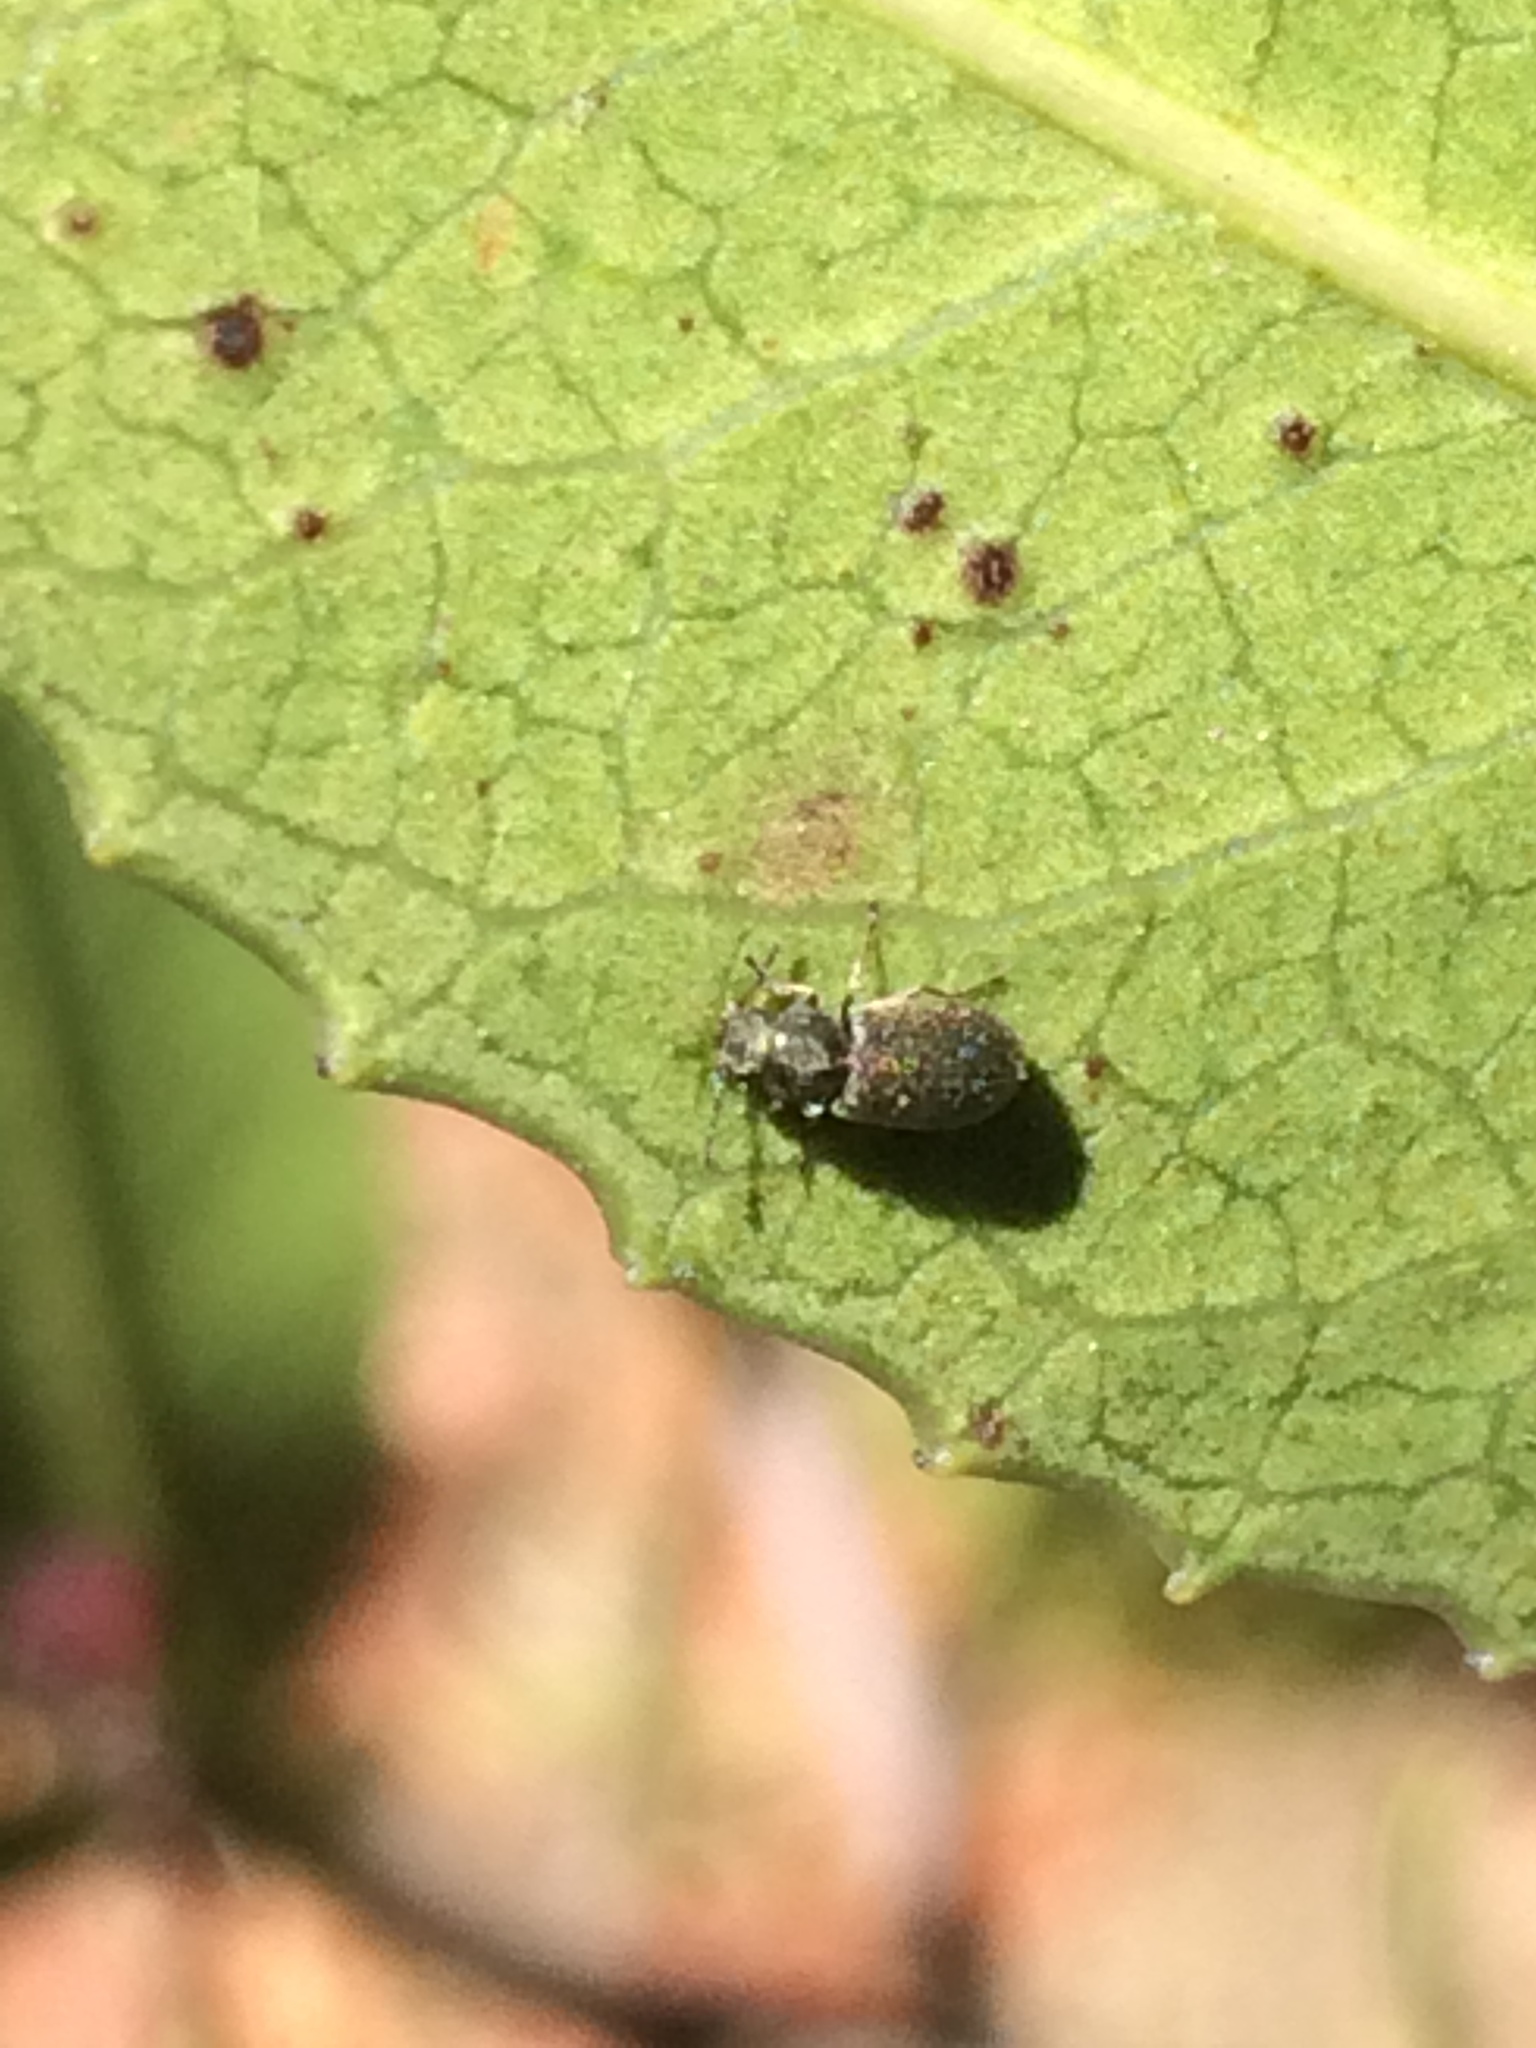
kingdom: Animalia
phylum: Arthropoda
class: Insecta
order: Coleoptera
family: Anobiidae
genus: Ozognathus
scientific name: Ozognathus cornutus
